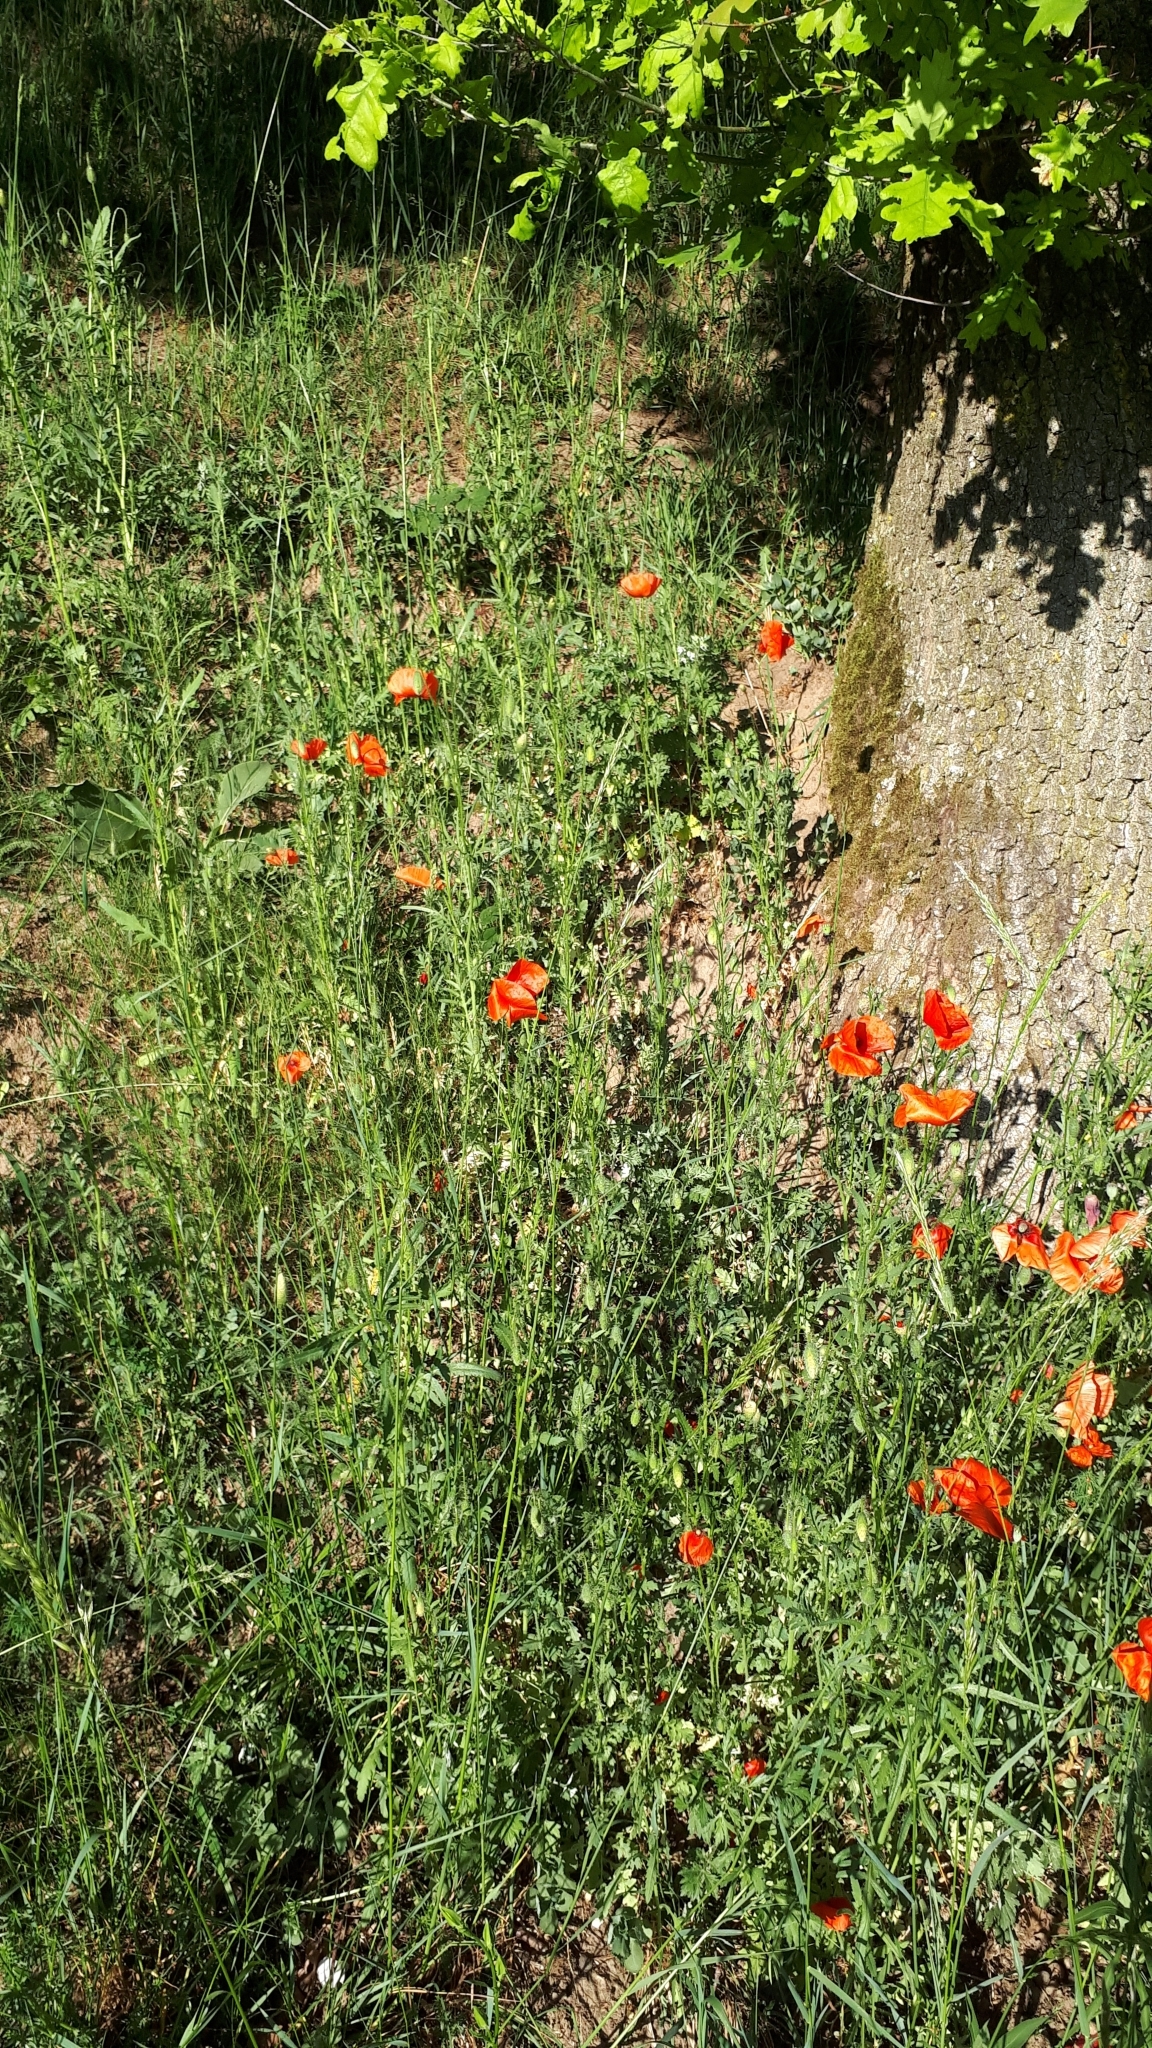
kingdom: Plantae
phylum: Tracheophyta
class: Magnoliopsida
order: Ranunculales
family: Papaveraceae
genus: Papaver
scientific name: Papaver rhoeas
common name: Corn poppy
